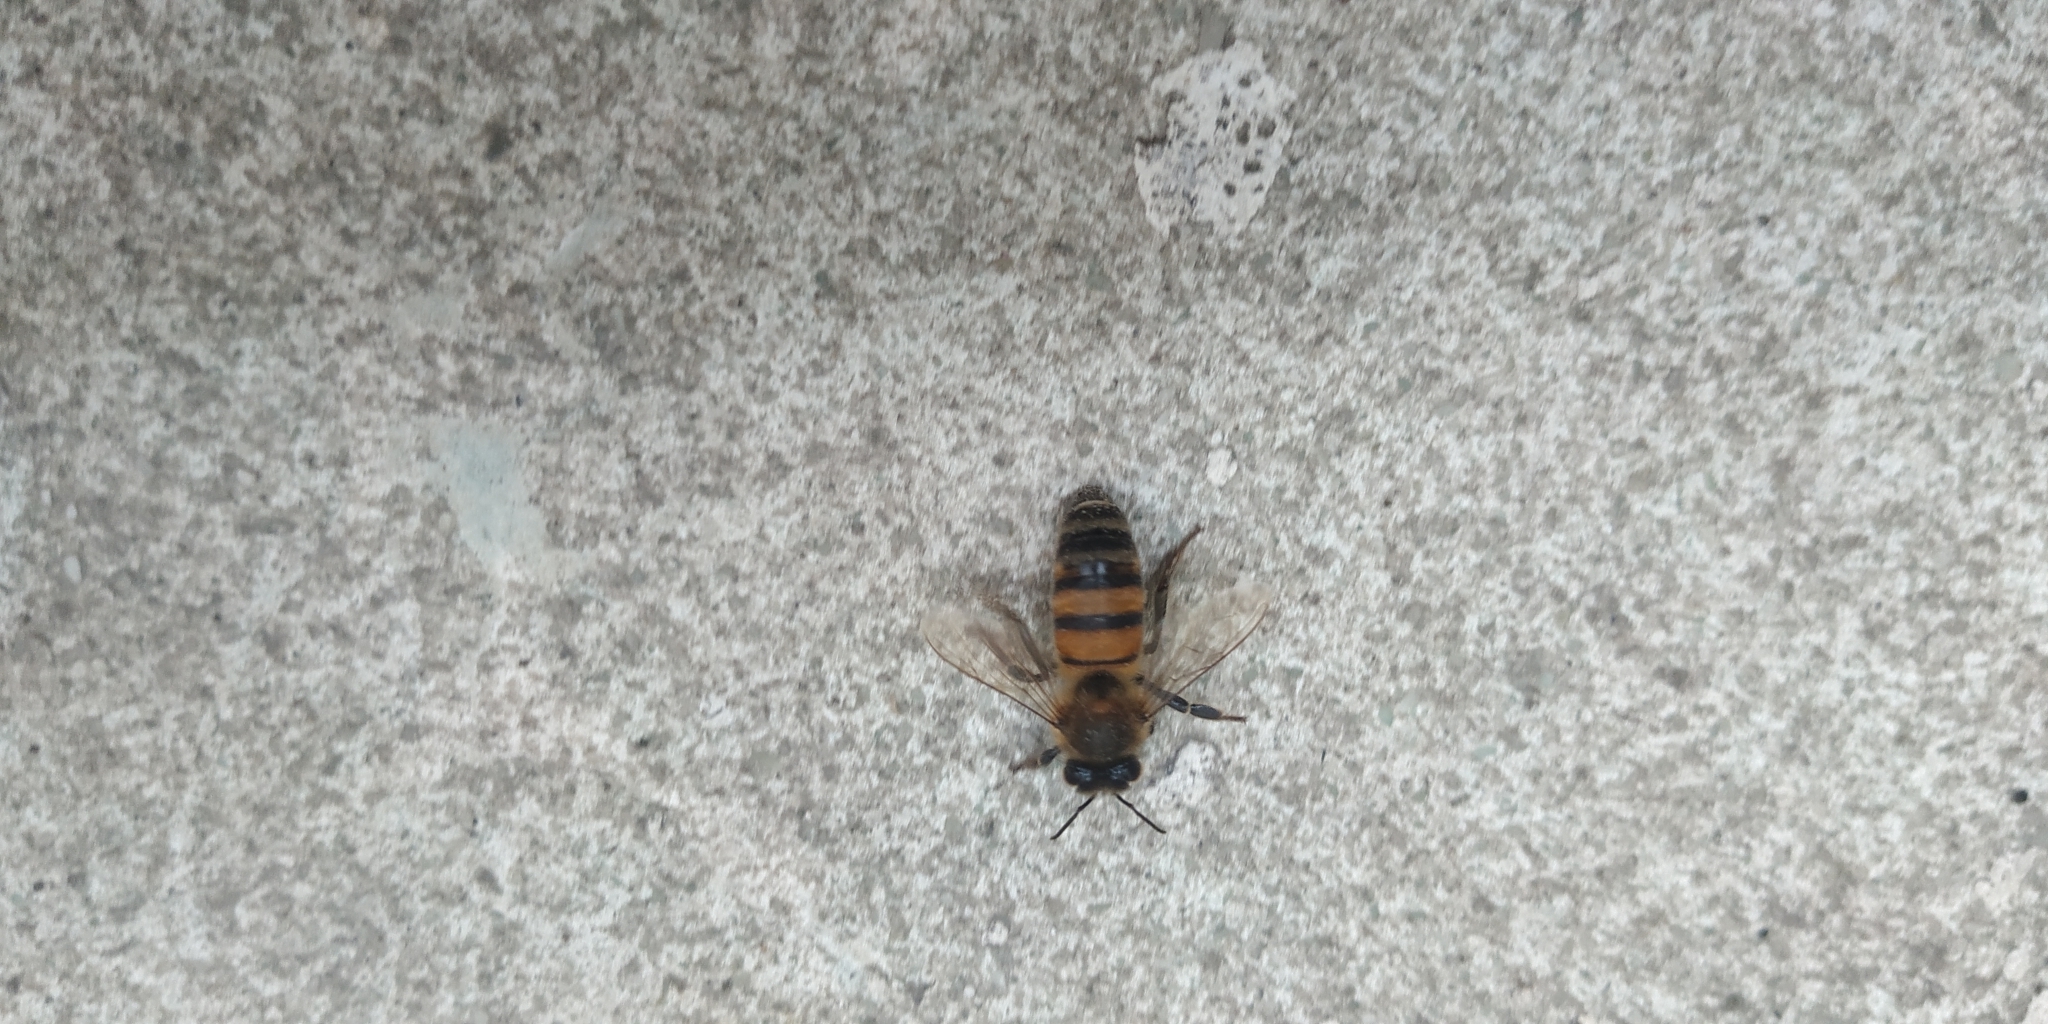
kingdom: Animalia
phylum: Arthropoda
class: Insecta
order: Hymenoptera
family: Apidae
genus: Apis
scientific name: Apis mellifera
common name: Honey bee
